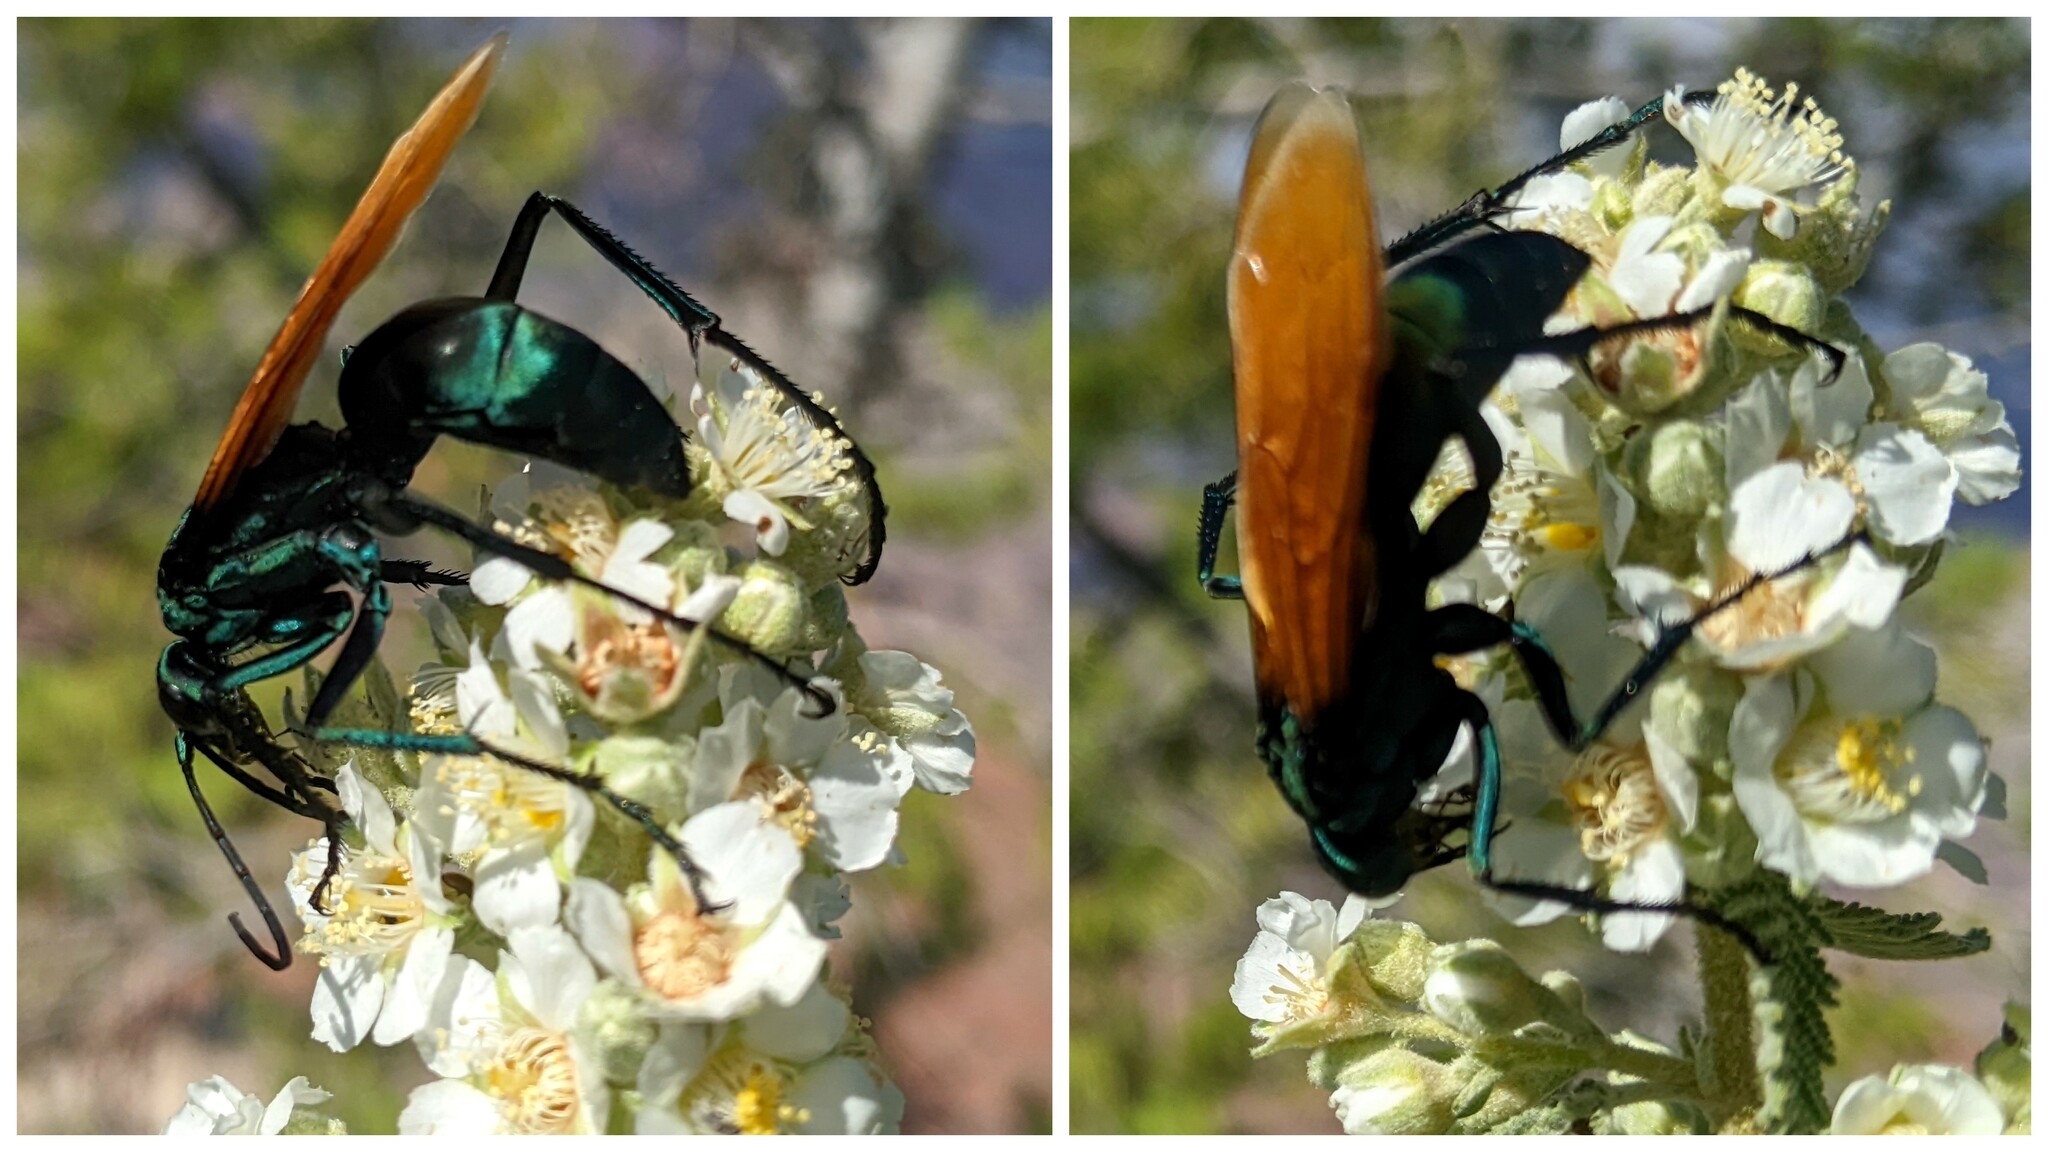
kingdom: Animalia
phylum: Arthropoda
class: Insecta
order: Hymenoptera
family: Pompilidae
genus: Pepsis
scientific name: Pepsis thisbe
